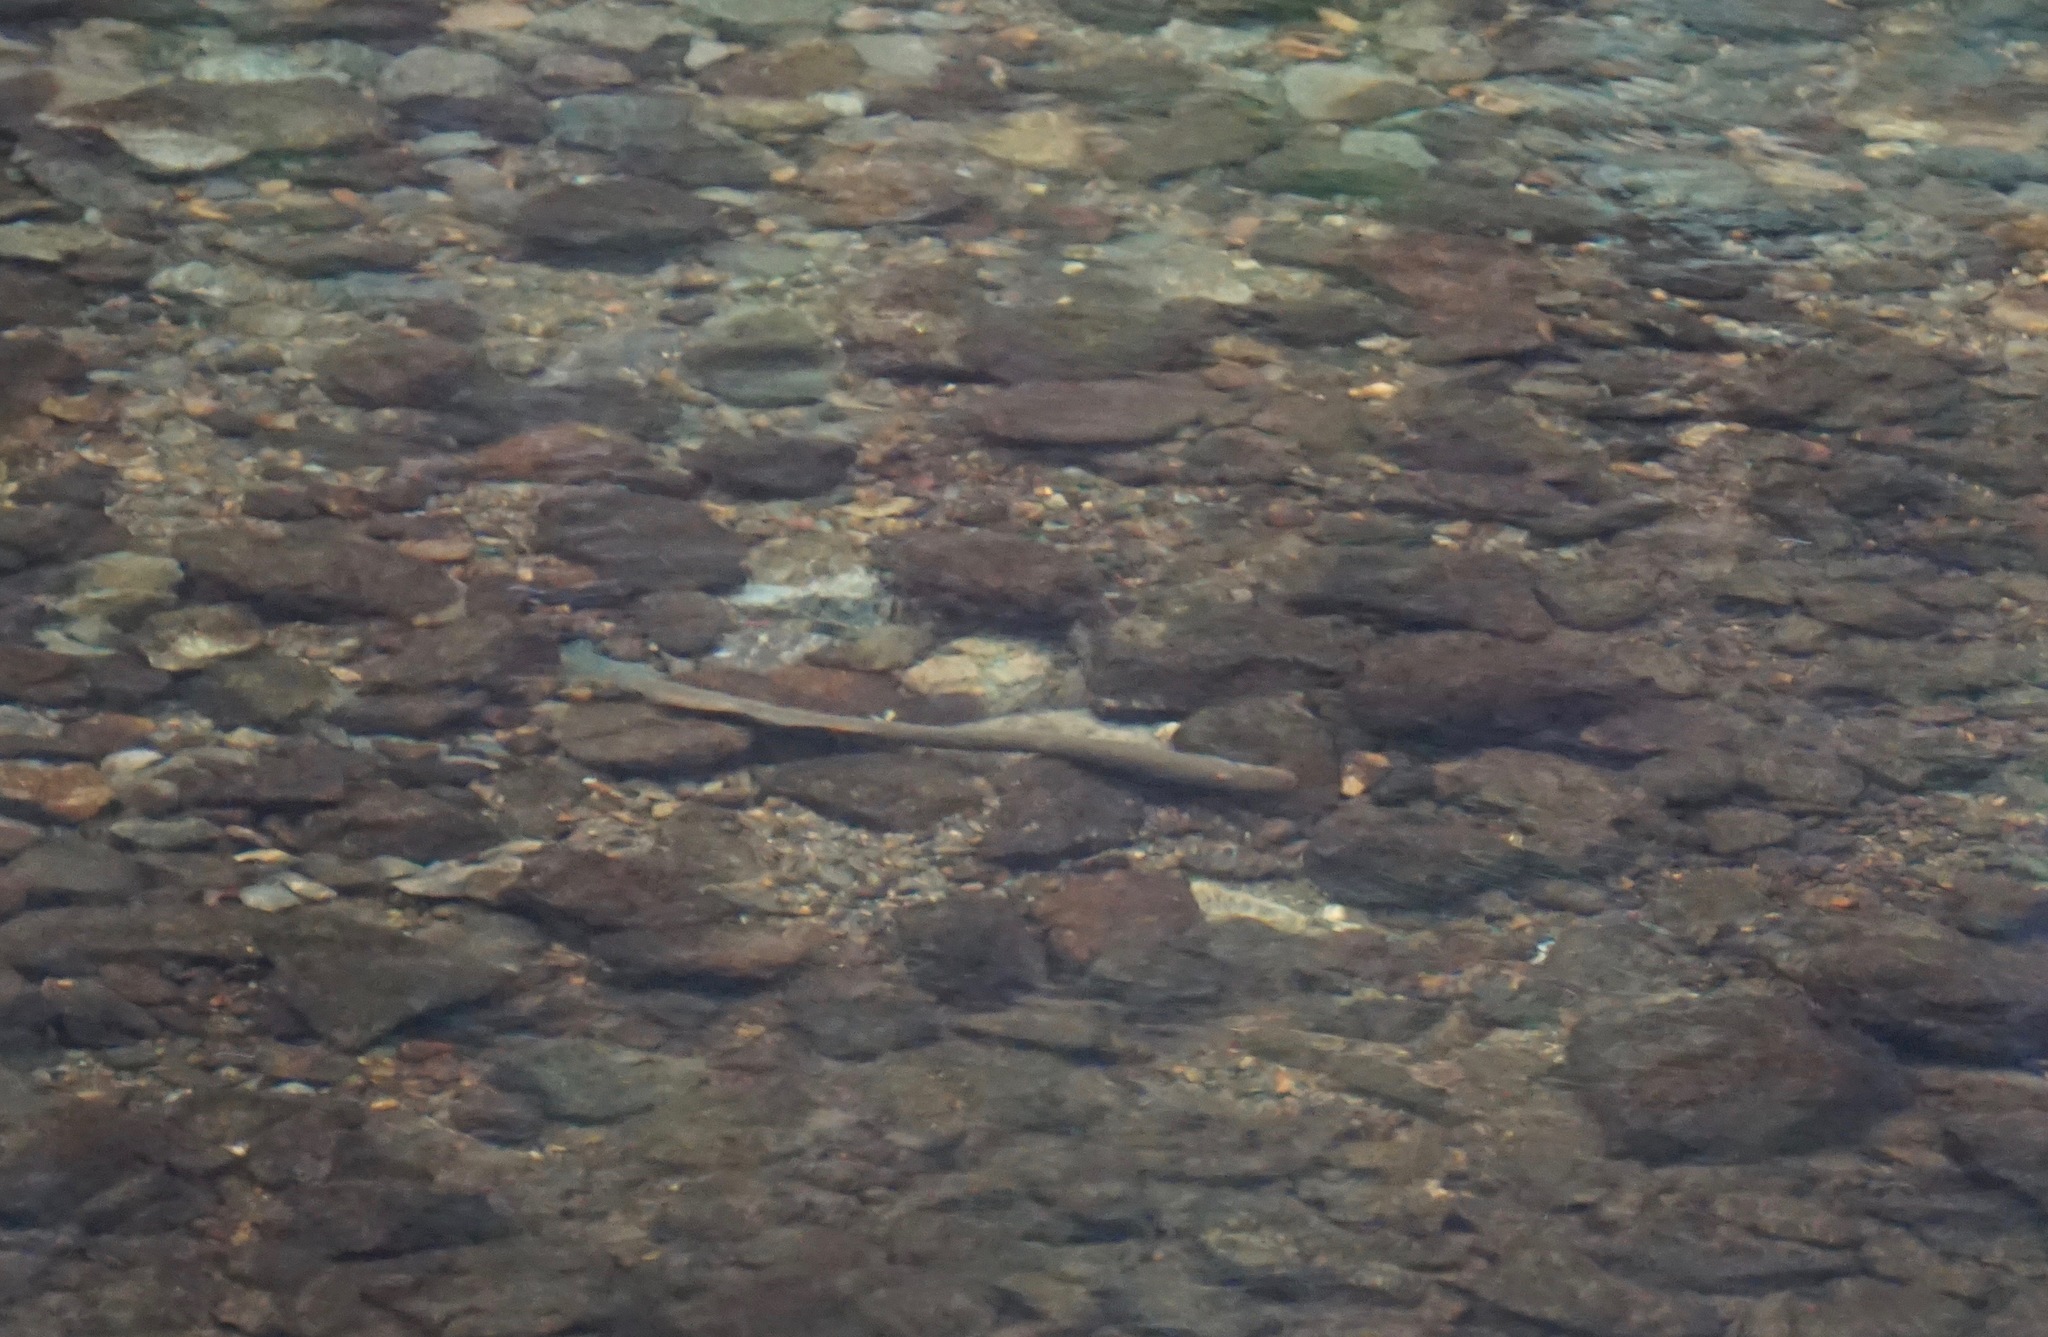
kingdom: Animalia
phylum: Chordata
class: Petromyzonti
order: Petromyzontiformes
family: Petromyzontidae
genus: Entosphenus
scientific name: Entosphenus tridentatus
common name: Pacific lamprey
